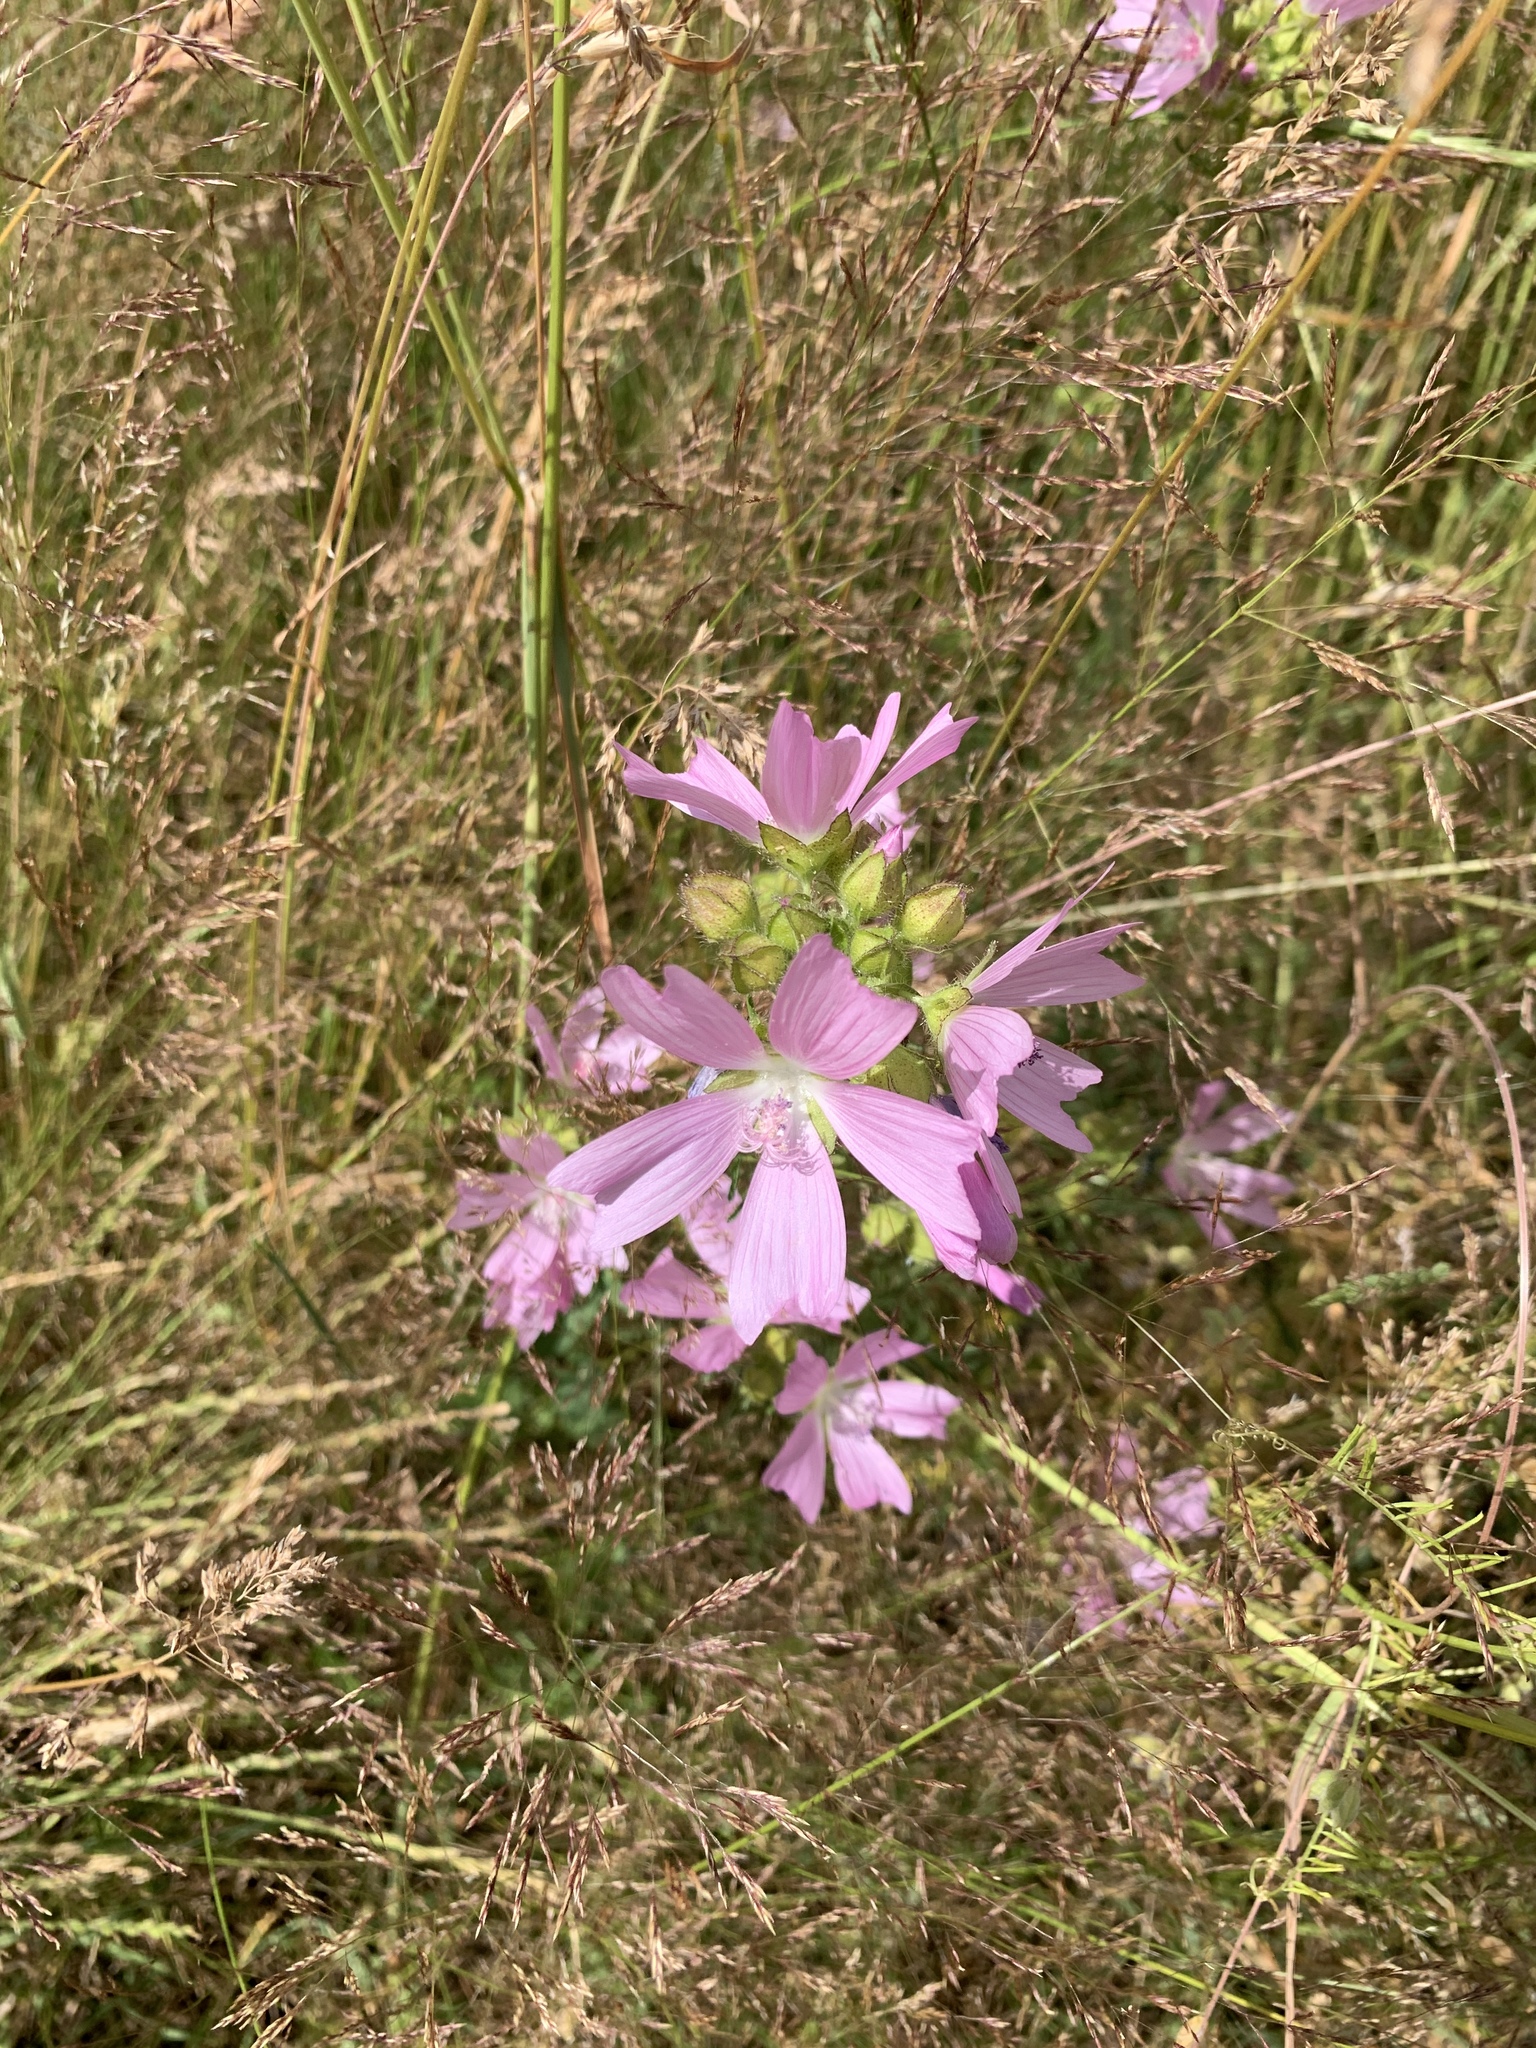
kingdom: Plantae
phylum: Tracheophyta
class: Magnoliopsida
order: Malvales
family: Malvaceae
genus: Malva
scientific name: Malva moschata
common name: Musk mallow
